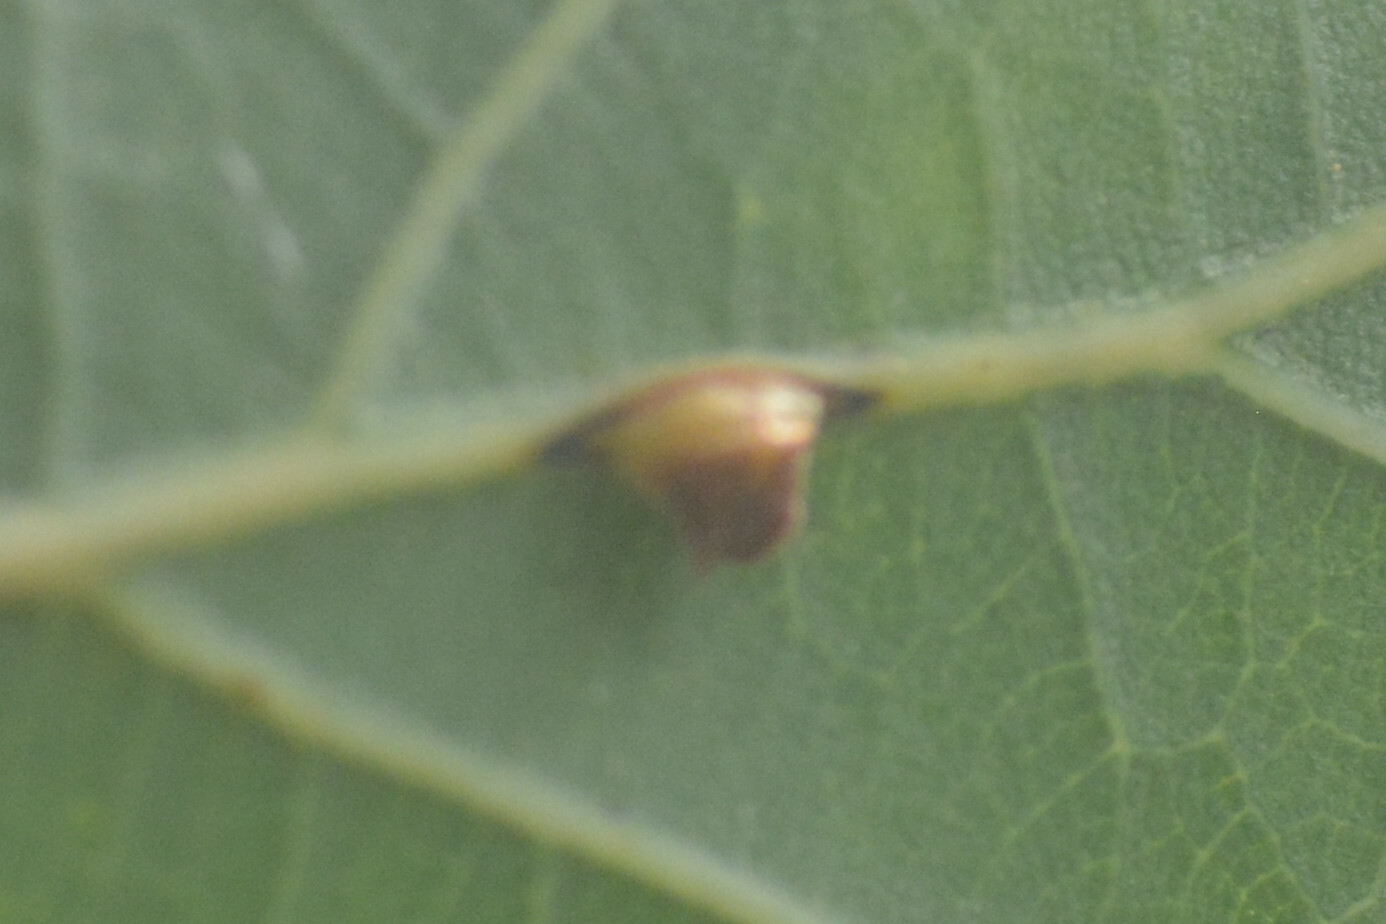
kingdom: Animalia
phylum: Arthropoda
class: Insecta
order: Hymenoptera
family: Cynipidae
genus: Neuroterus
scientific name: Neuroterus anthracinus
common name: Oyster gall
